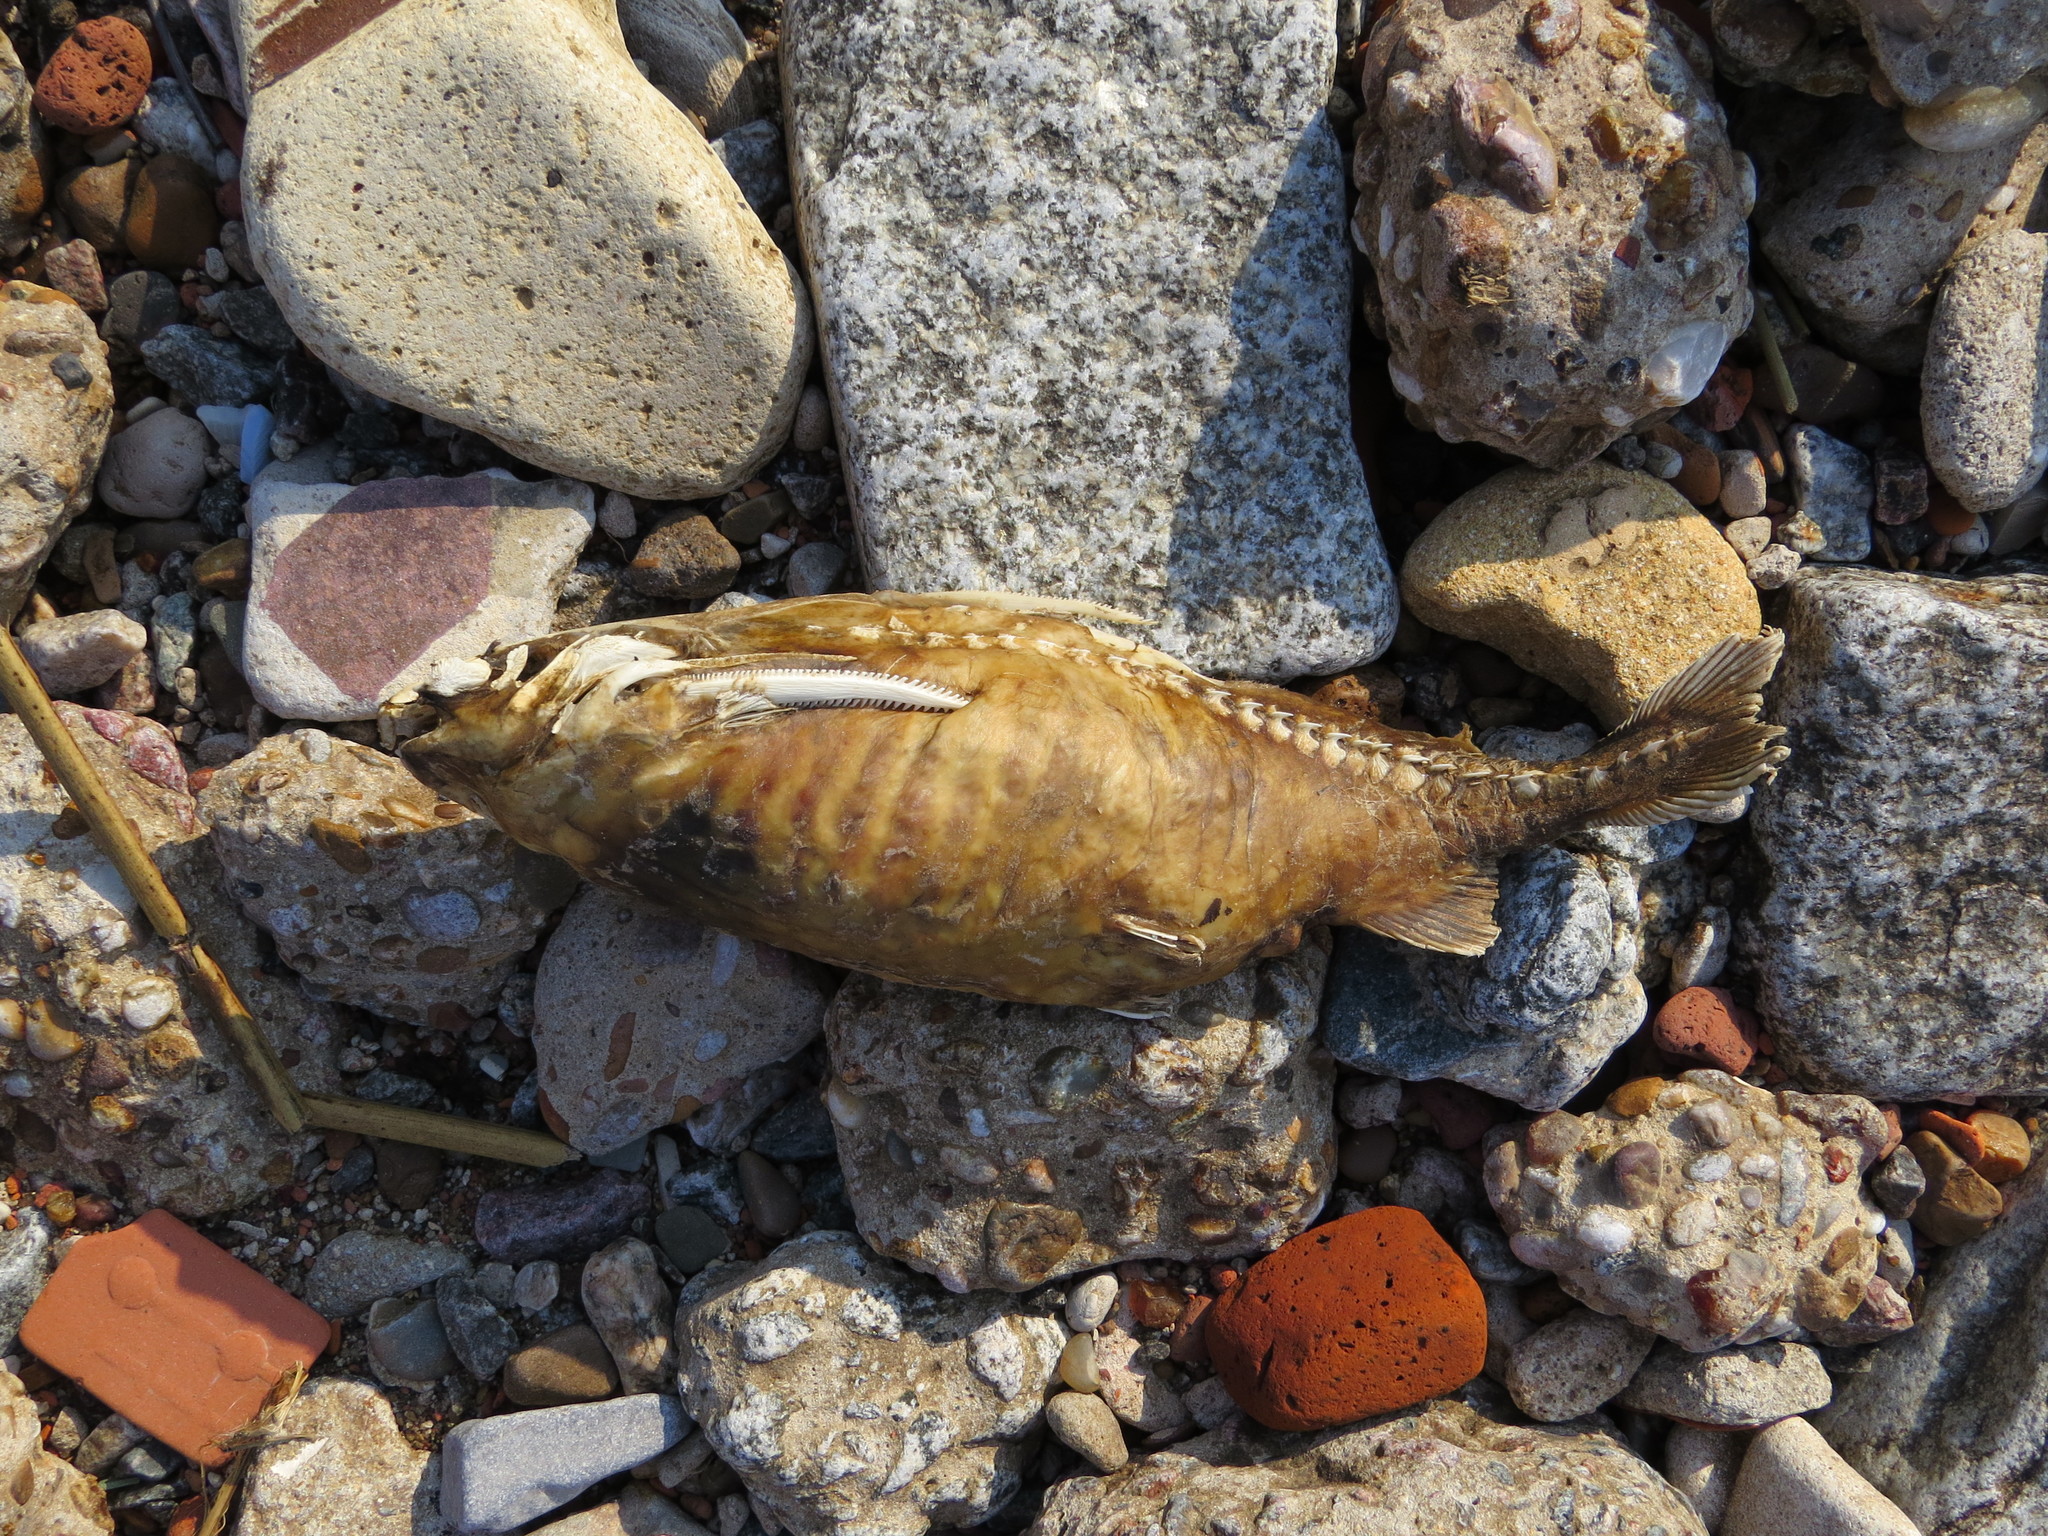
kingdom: Animalia
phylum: Chordata
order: Siluriformes
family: Doradidae
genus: Pterodoras
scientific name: Pterodoras granulosus
